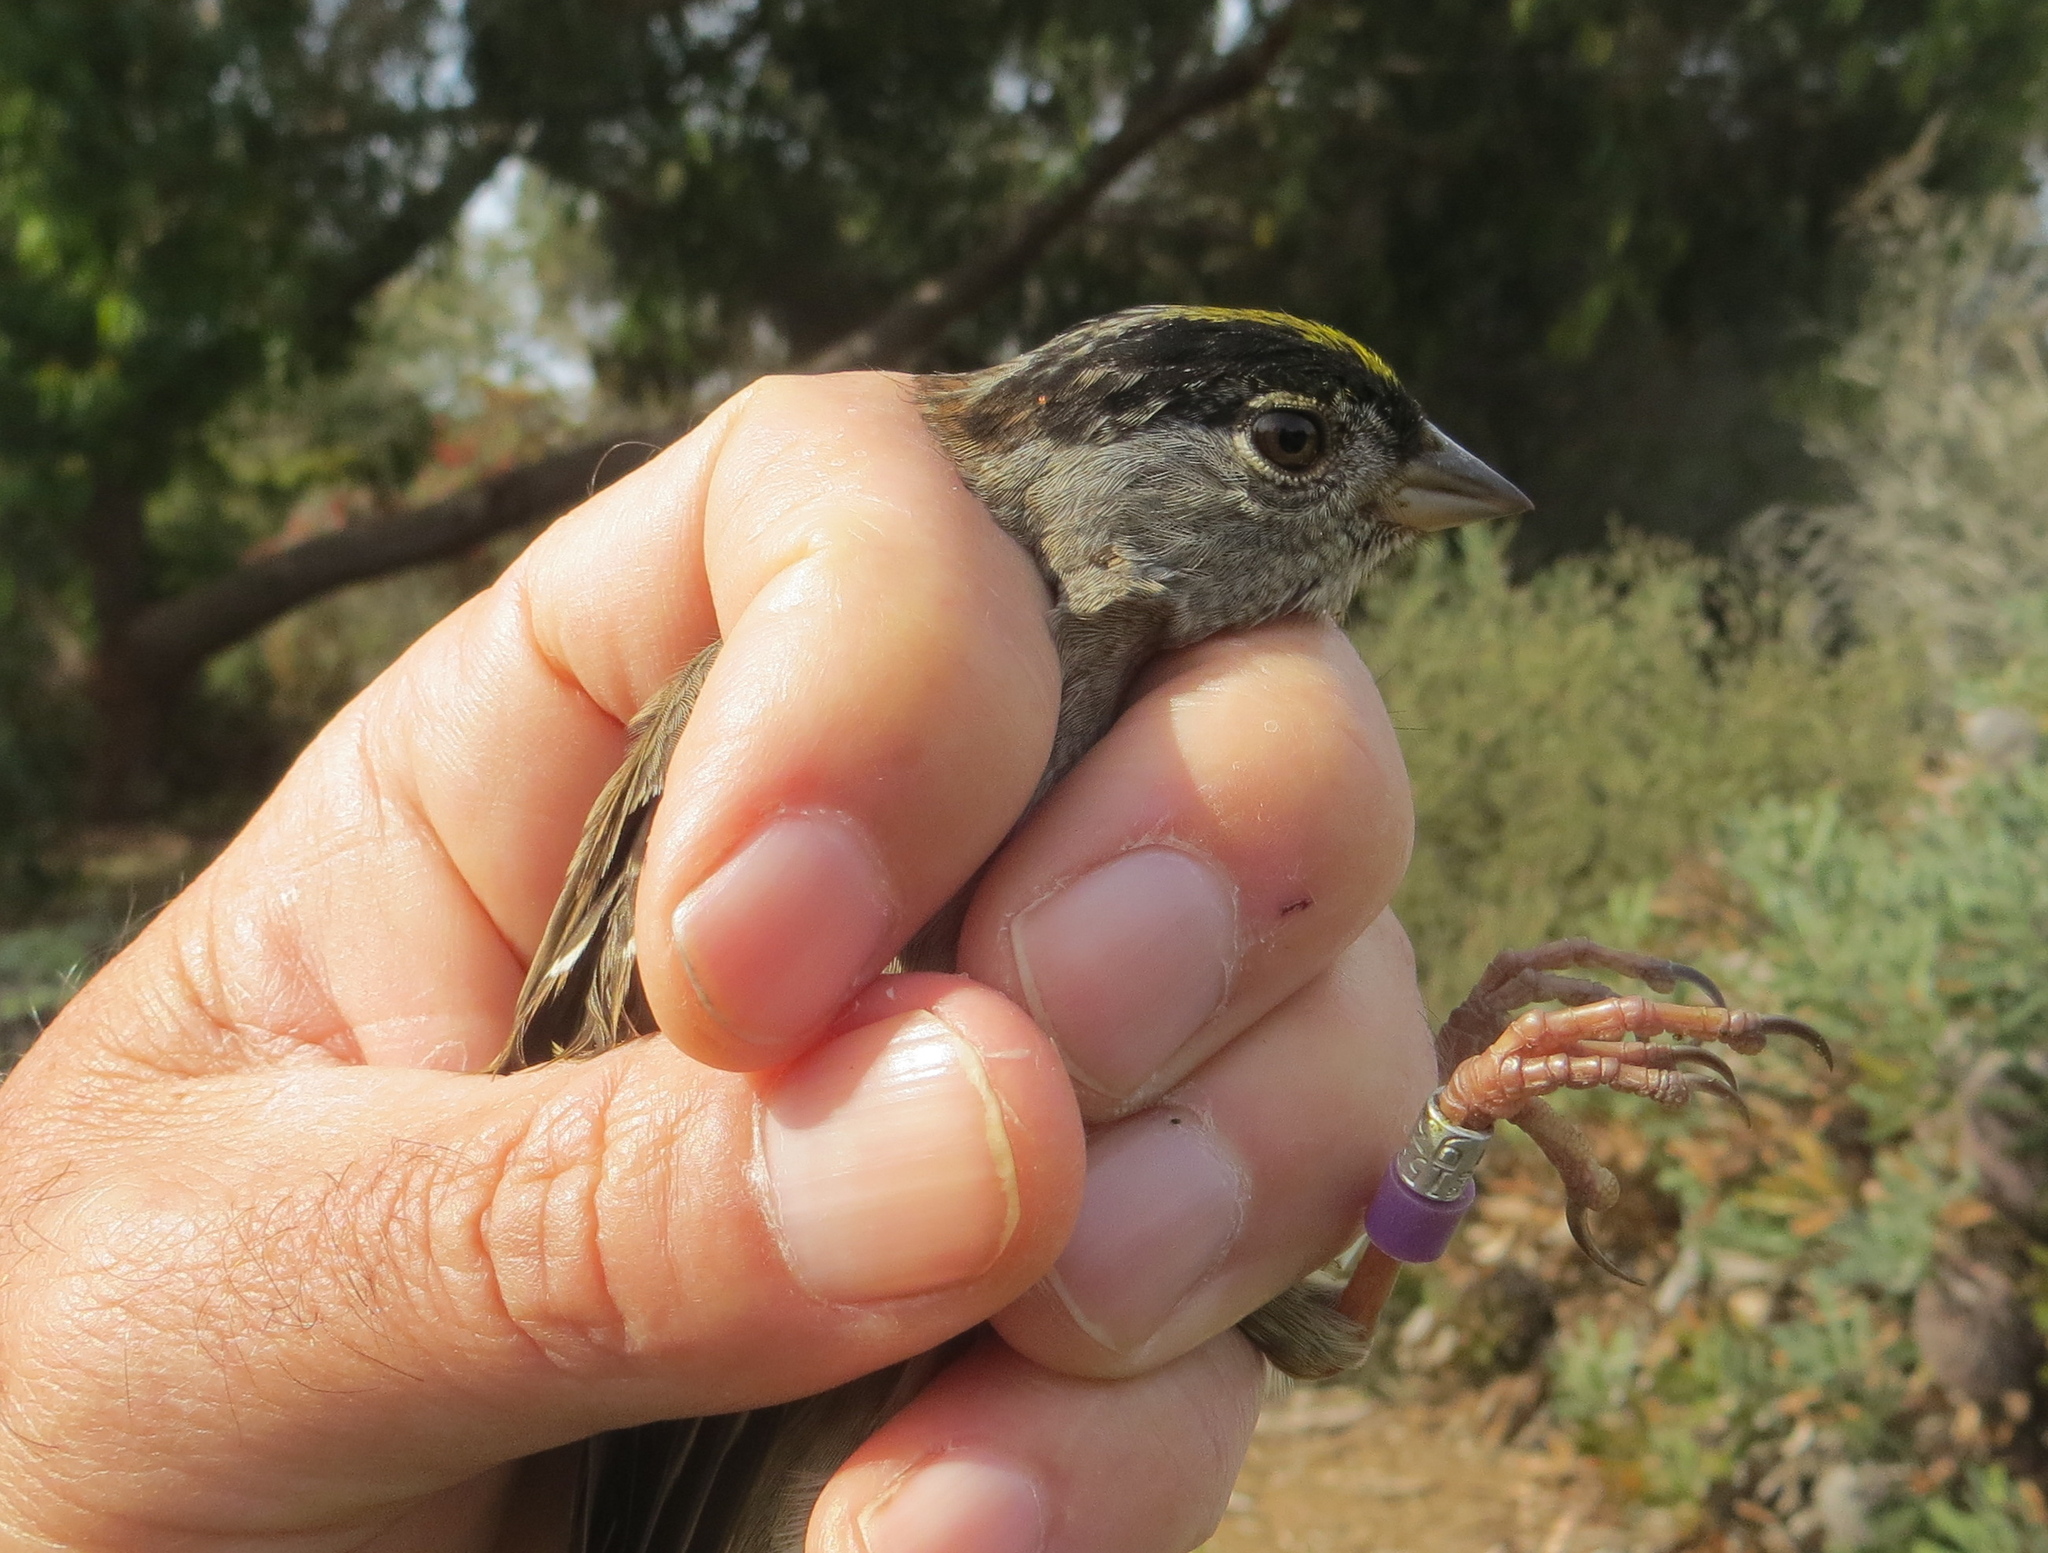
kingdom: Animalia
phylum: Chordata
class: Aves
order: Passeriformes
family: Passerellidae
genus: Zonotrichia
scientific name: Zonotrichia atricapilla
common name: Golden-crowned sparrow
